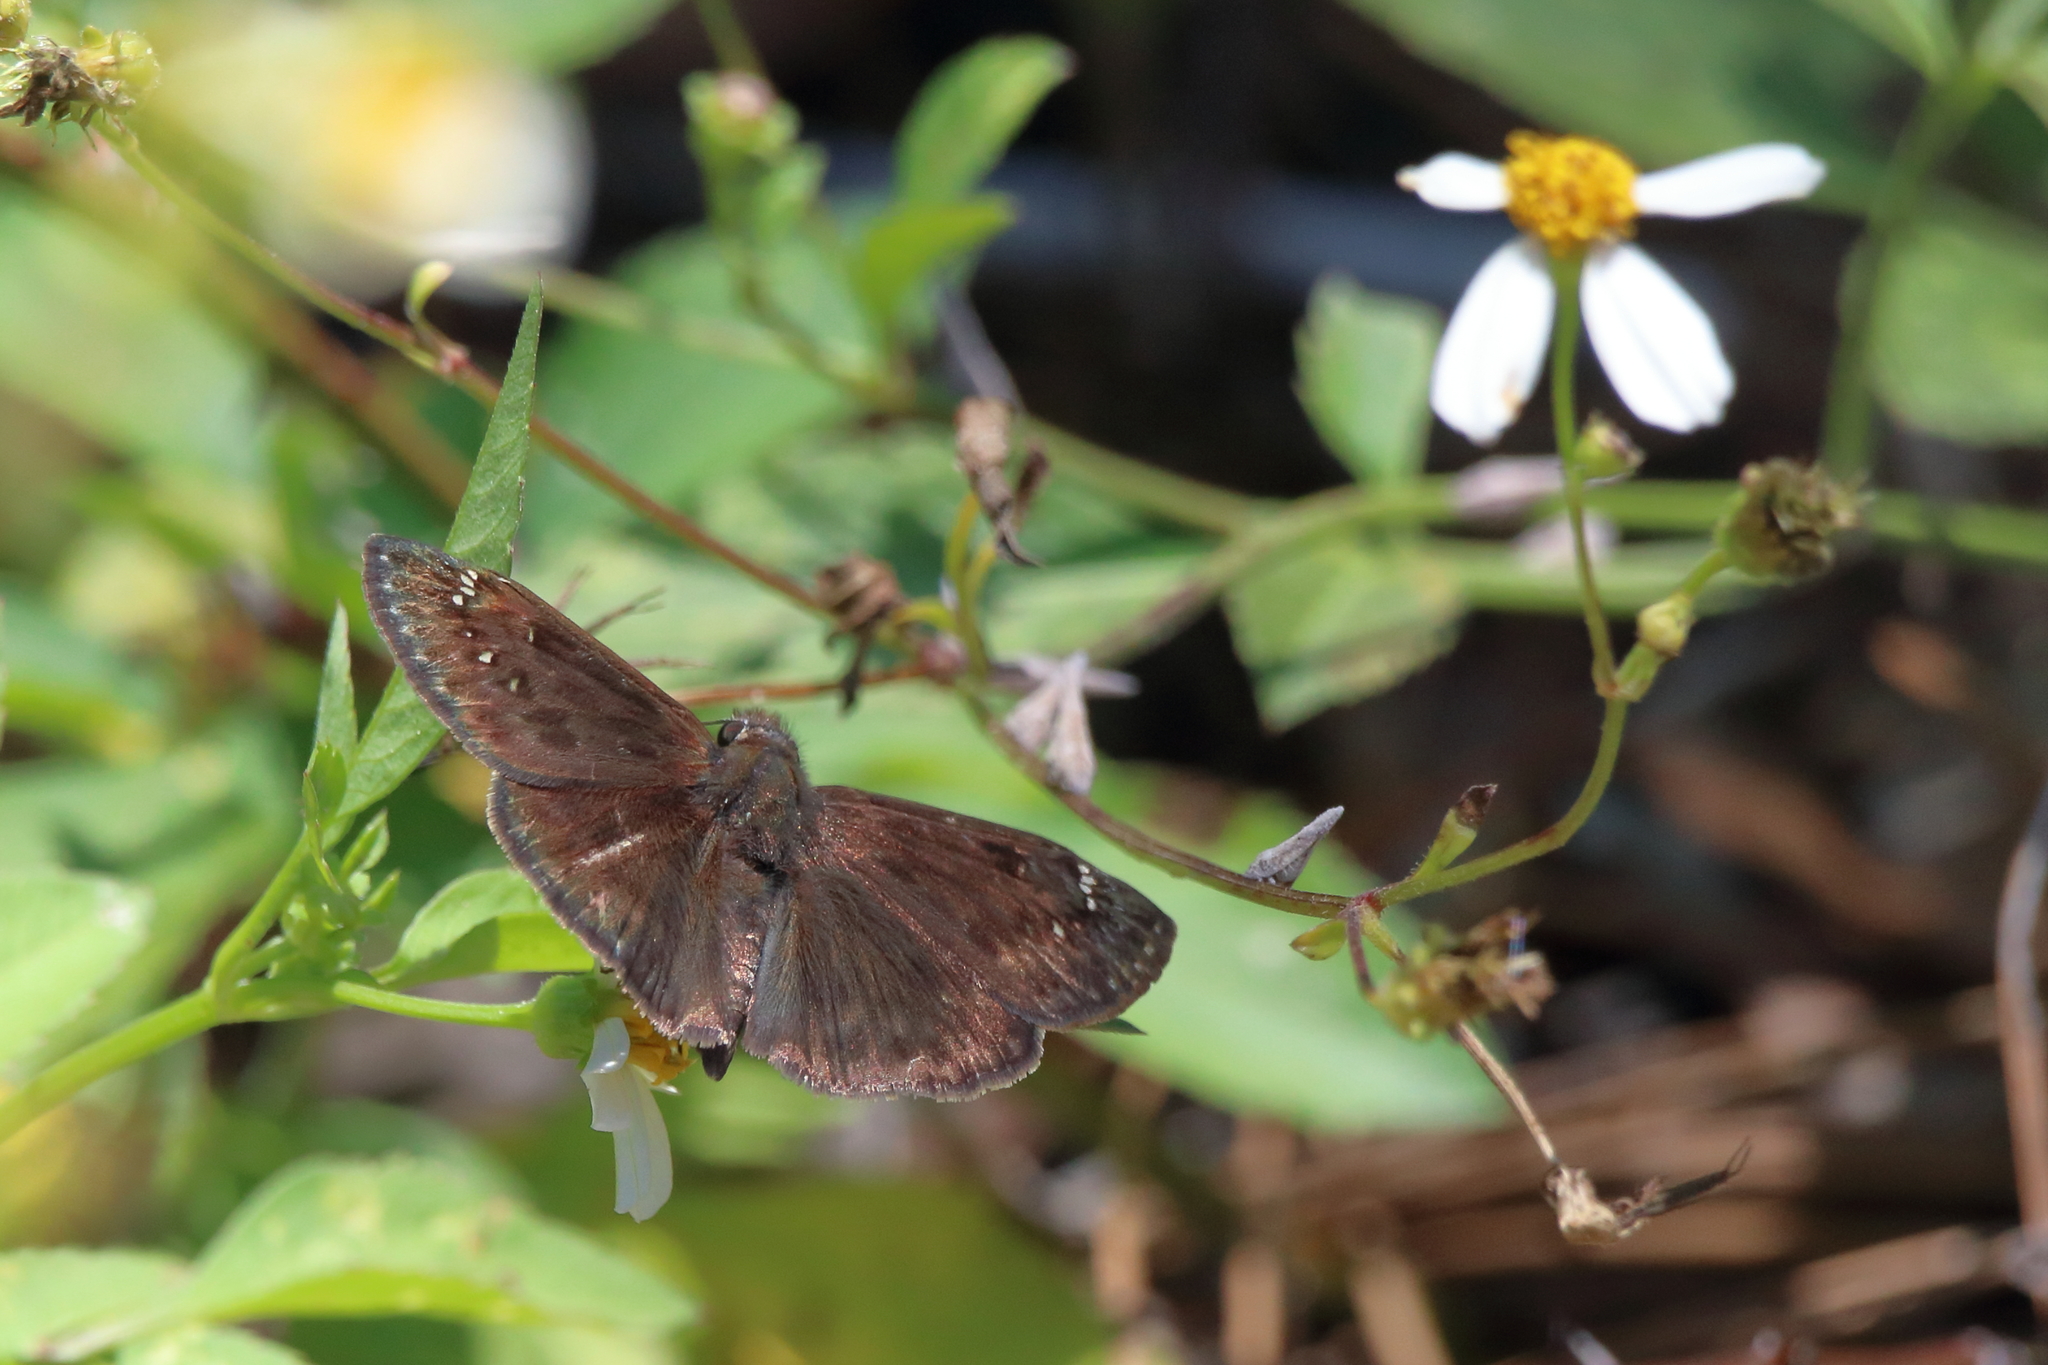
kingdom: Animalia
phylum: Arthropoda
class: Insecta
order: Lepidoptera
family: Hesperiidae
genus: Erynnis
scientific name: Erynnis horatius
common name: Horace's duskywing
